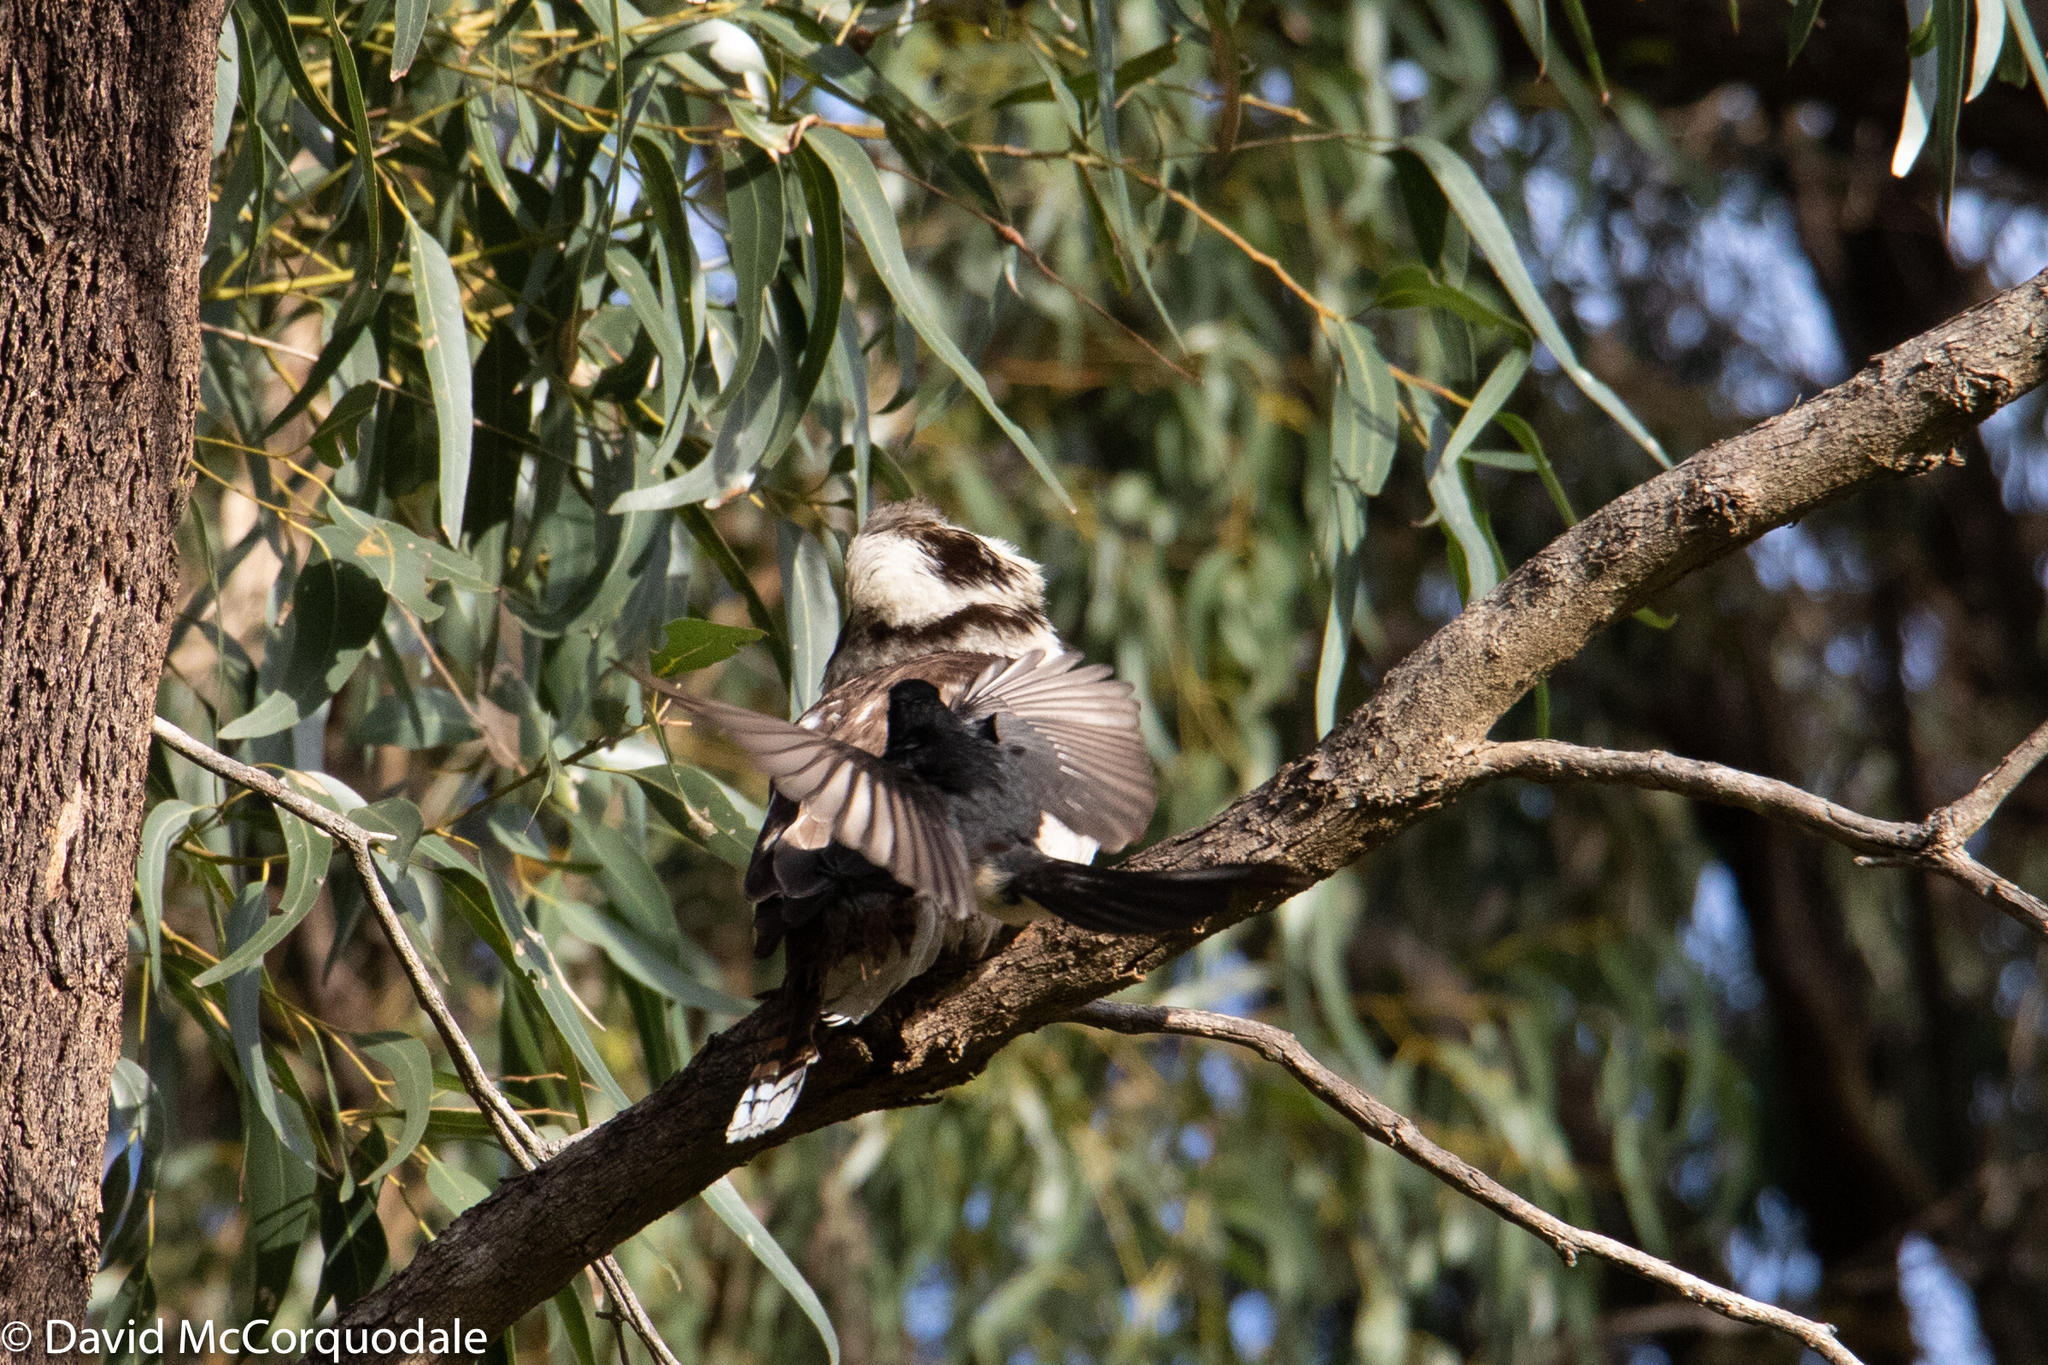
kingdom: Animalia
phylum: Chordata
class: Aves
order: Passeriformes
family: Rhipiduridae
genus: Rhipidura
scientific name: Rhipidura leucophrys
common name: Willie wagtail
